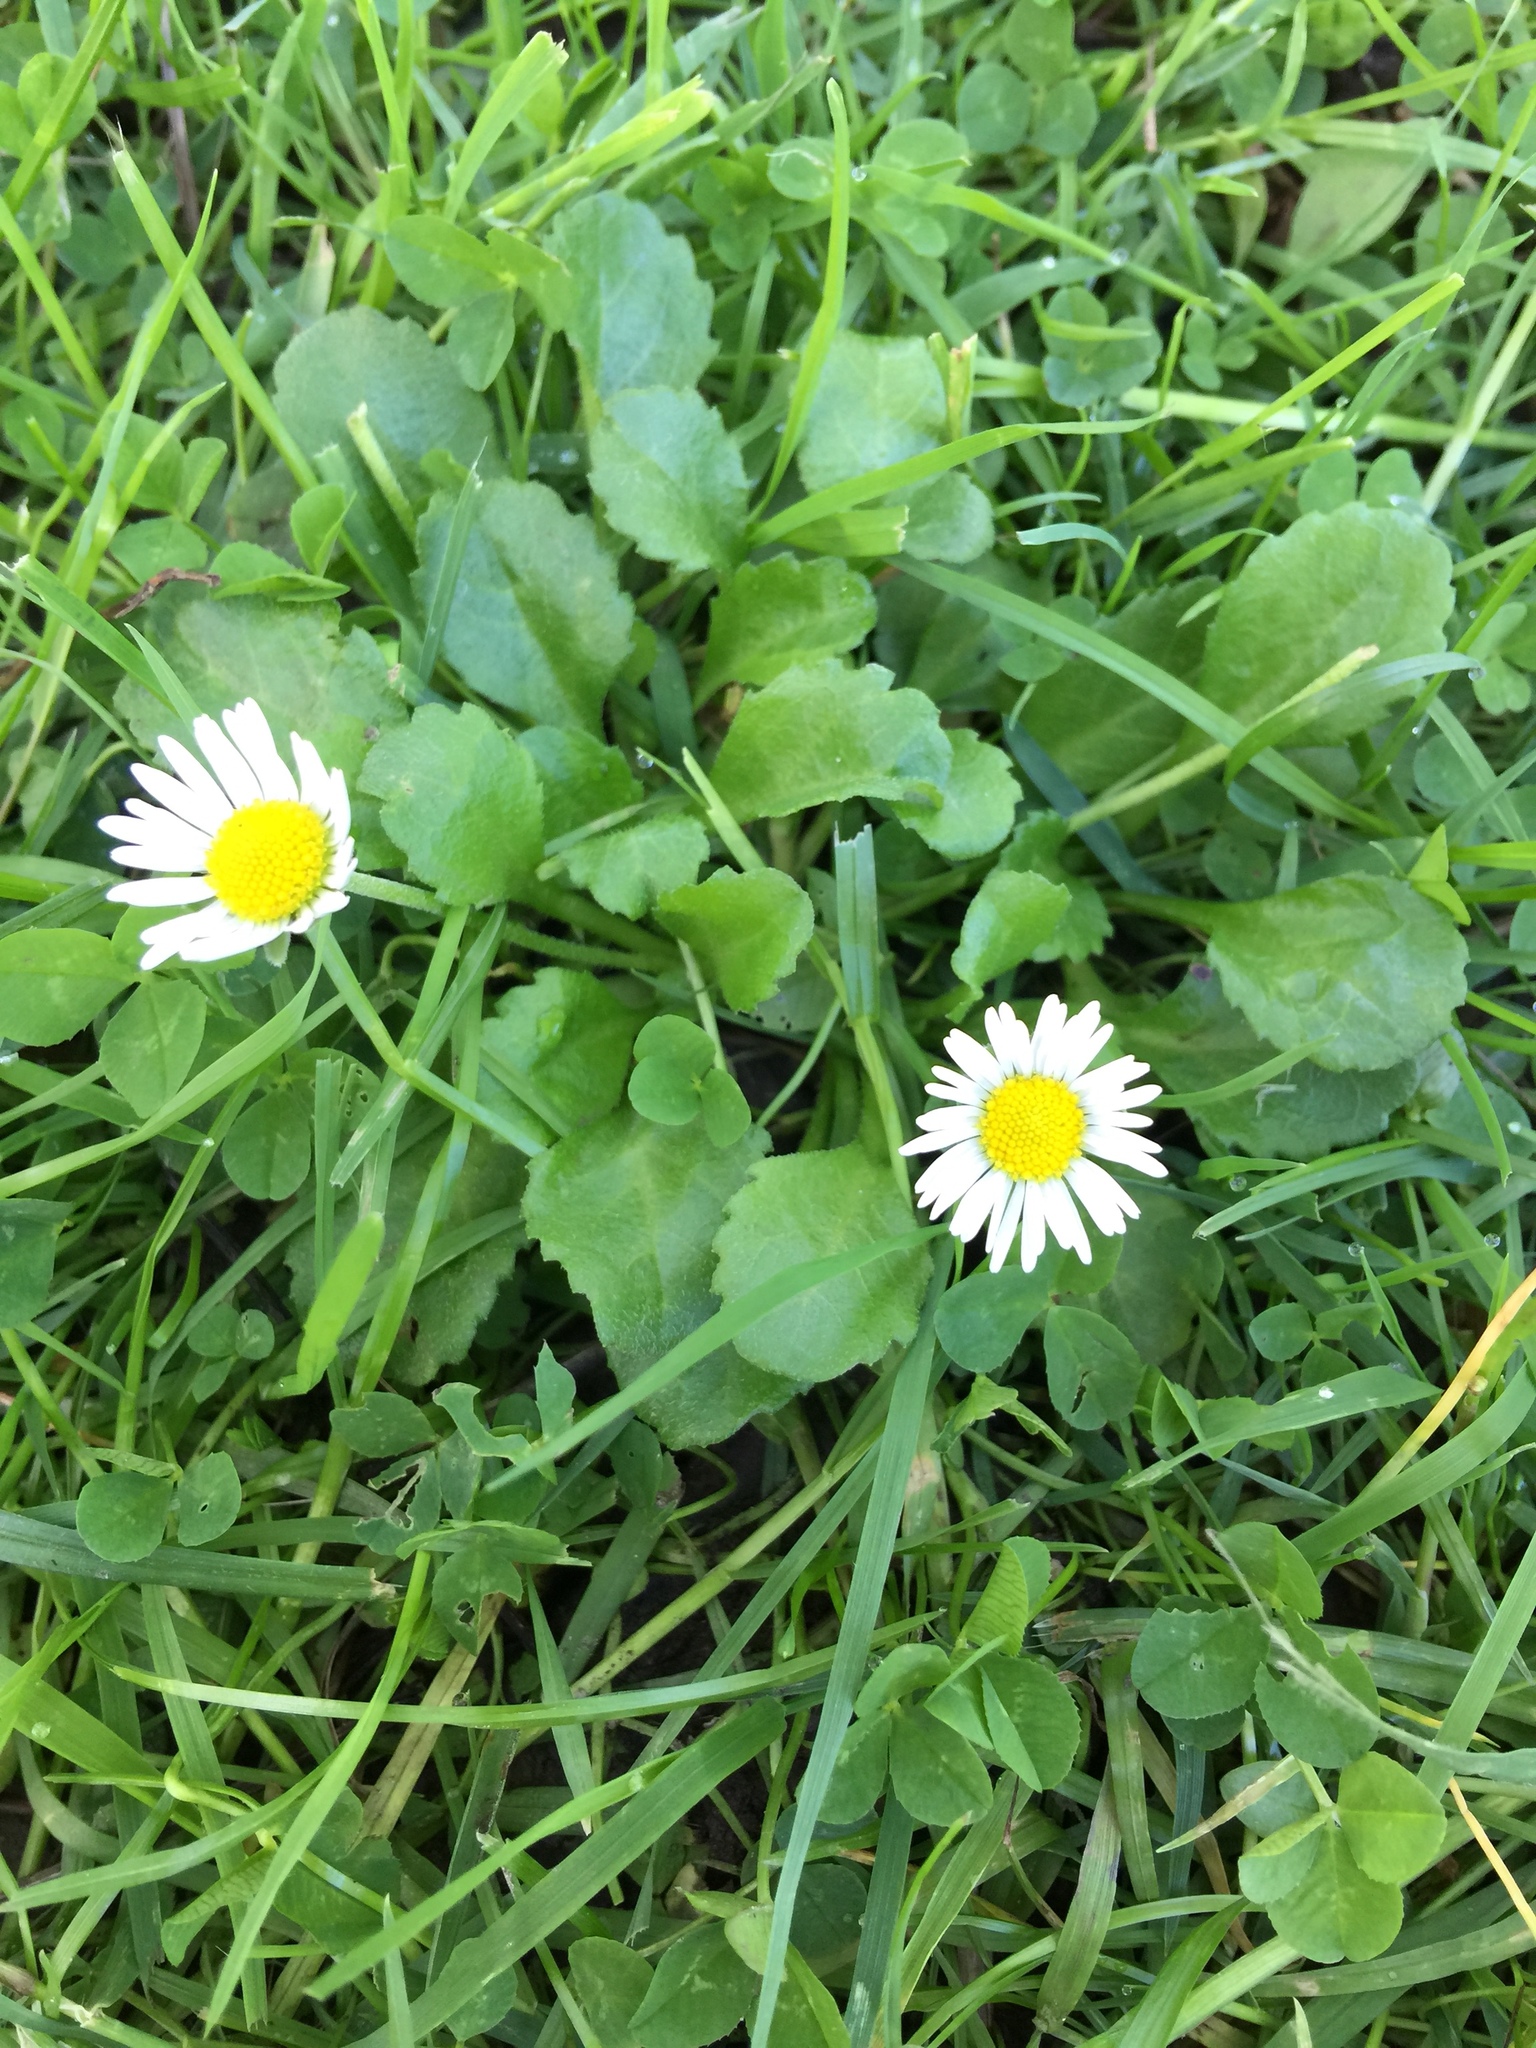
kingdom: Plantae
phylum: Tracheophyta
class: Magnoliopsida
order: Asterales
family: Asteraceae
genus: Bellis
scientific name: Bellis perennis
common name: Lawndaisy
